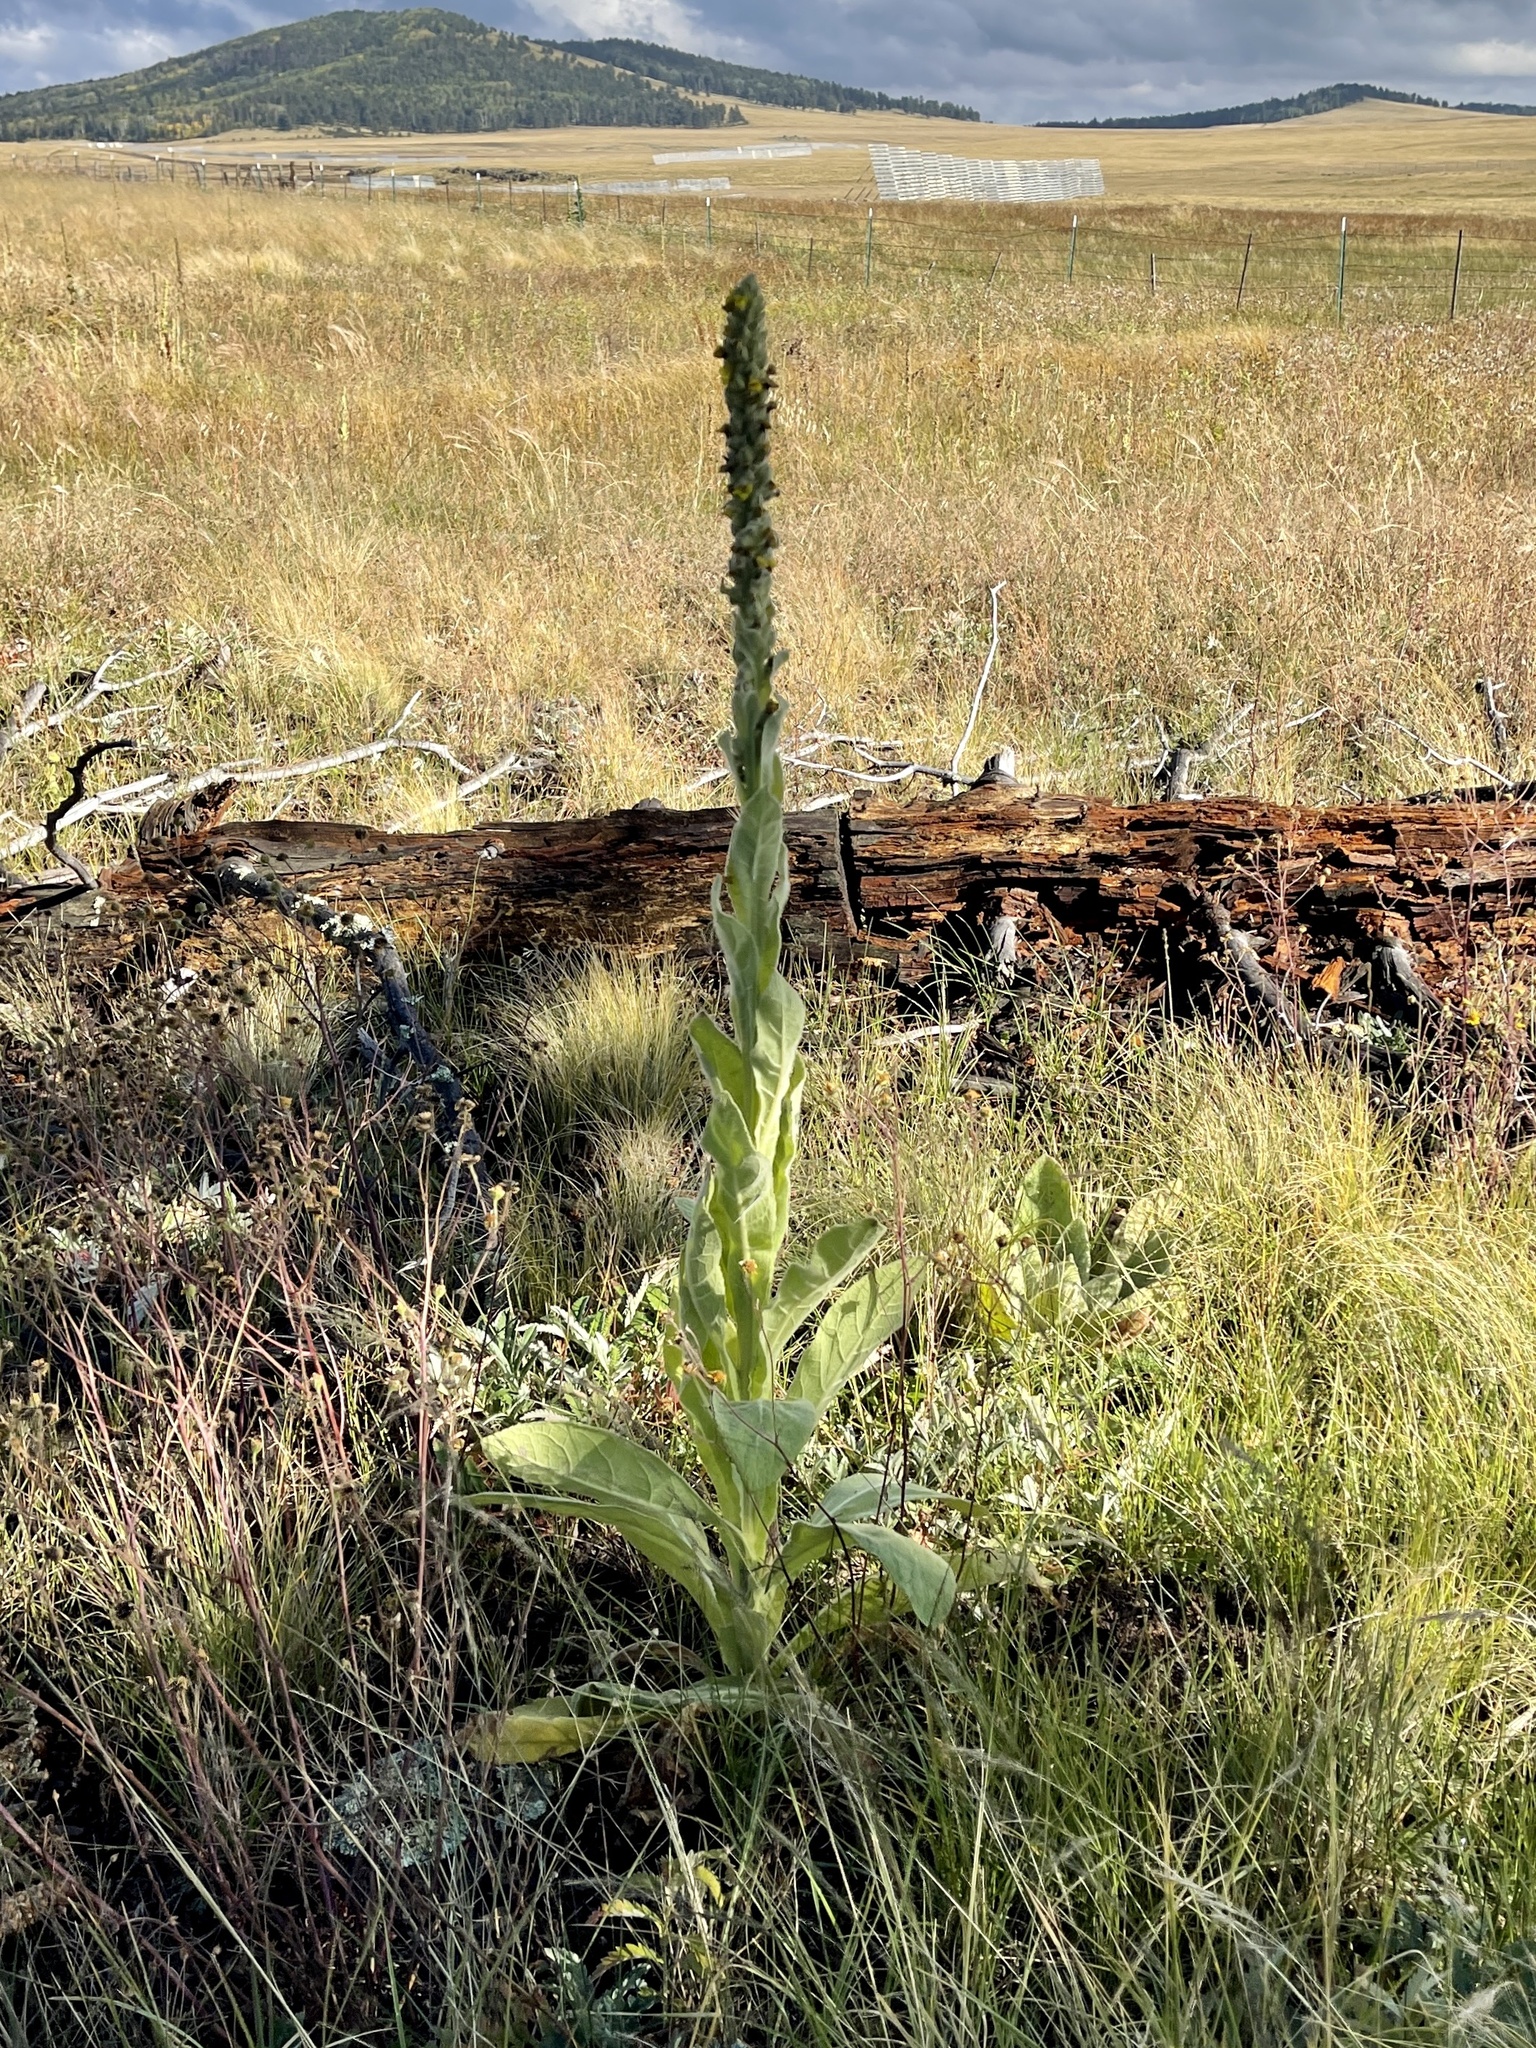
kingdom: Plantae
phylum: Tracheophyta
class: Magnoliopsida
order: Lamiales
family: Scrophulariaceae
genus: Verbascum
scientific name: Verbascum thapsus
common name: Common mullein
